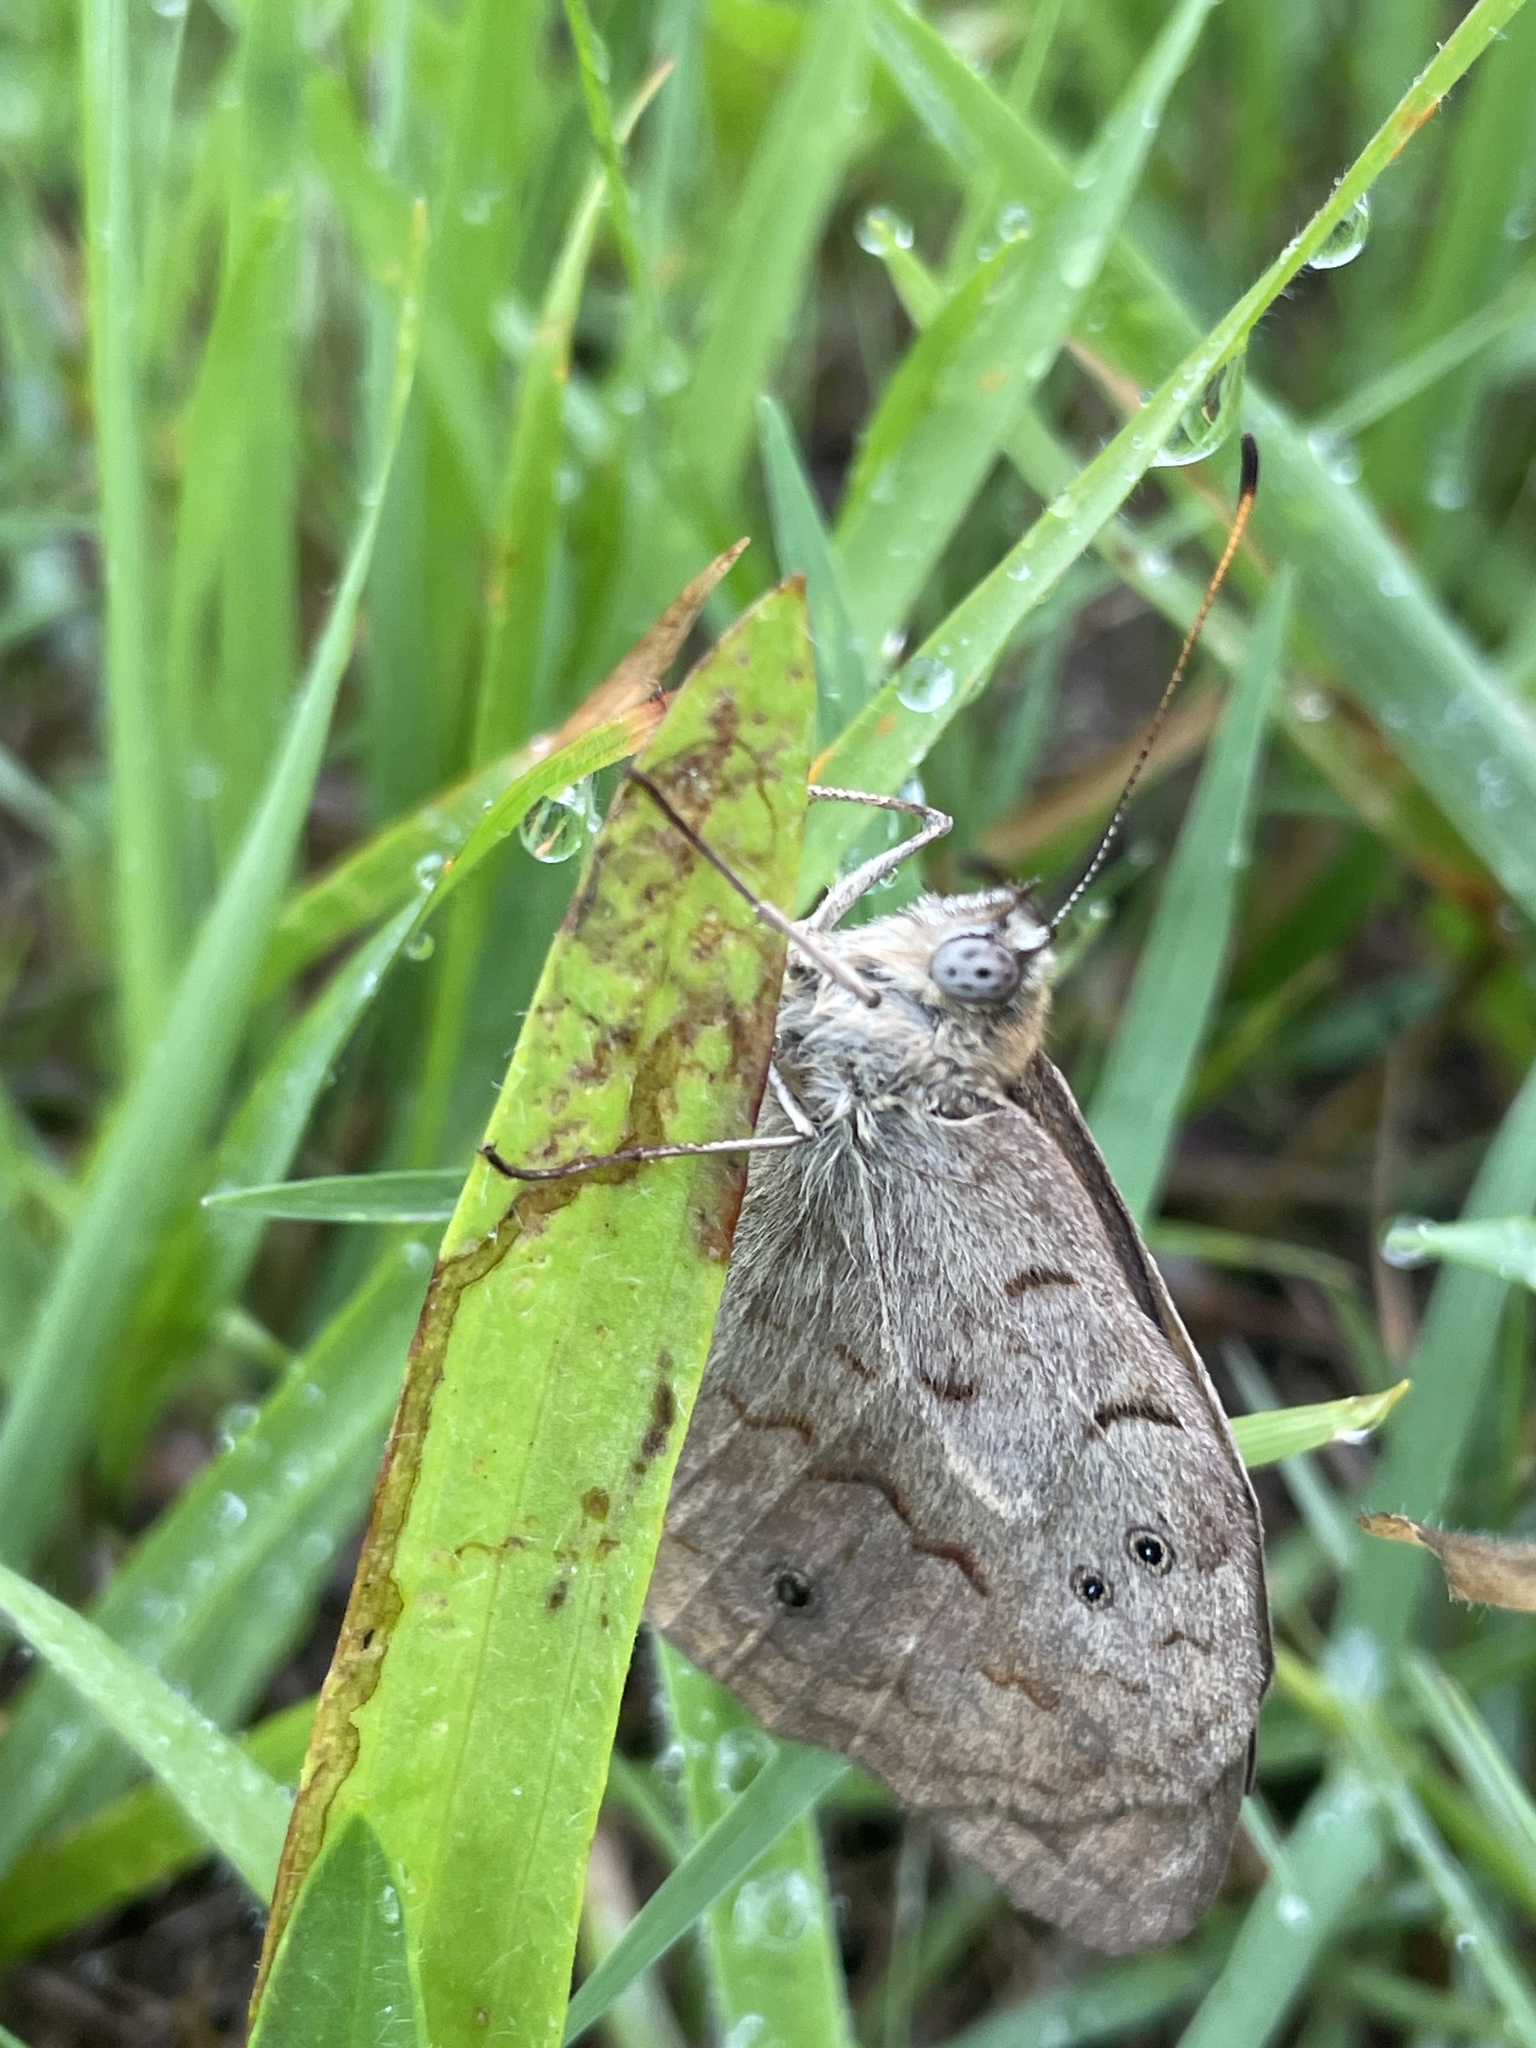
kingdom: Animalia
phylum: Arthropoda
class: Insecta
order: Lepidoptera
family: Nymphalidae
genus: Heteronympha
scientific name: Heteronympha merope
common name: Common brown
